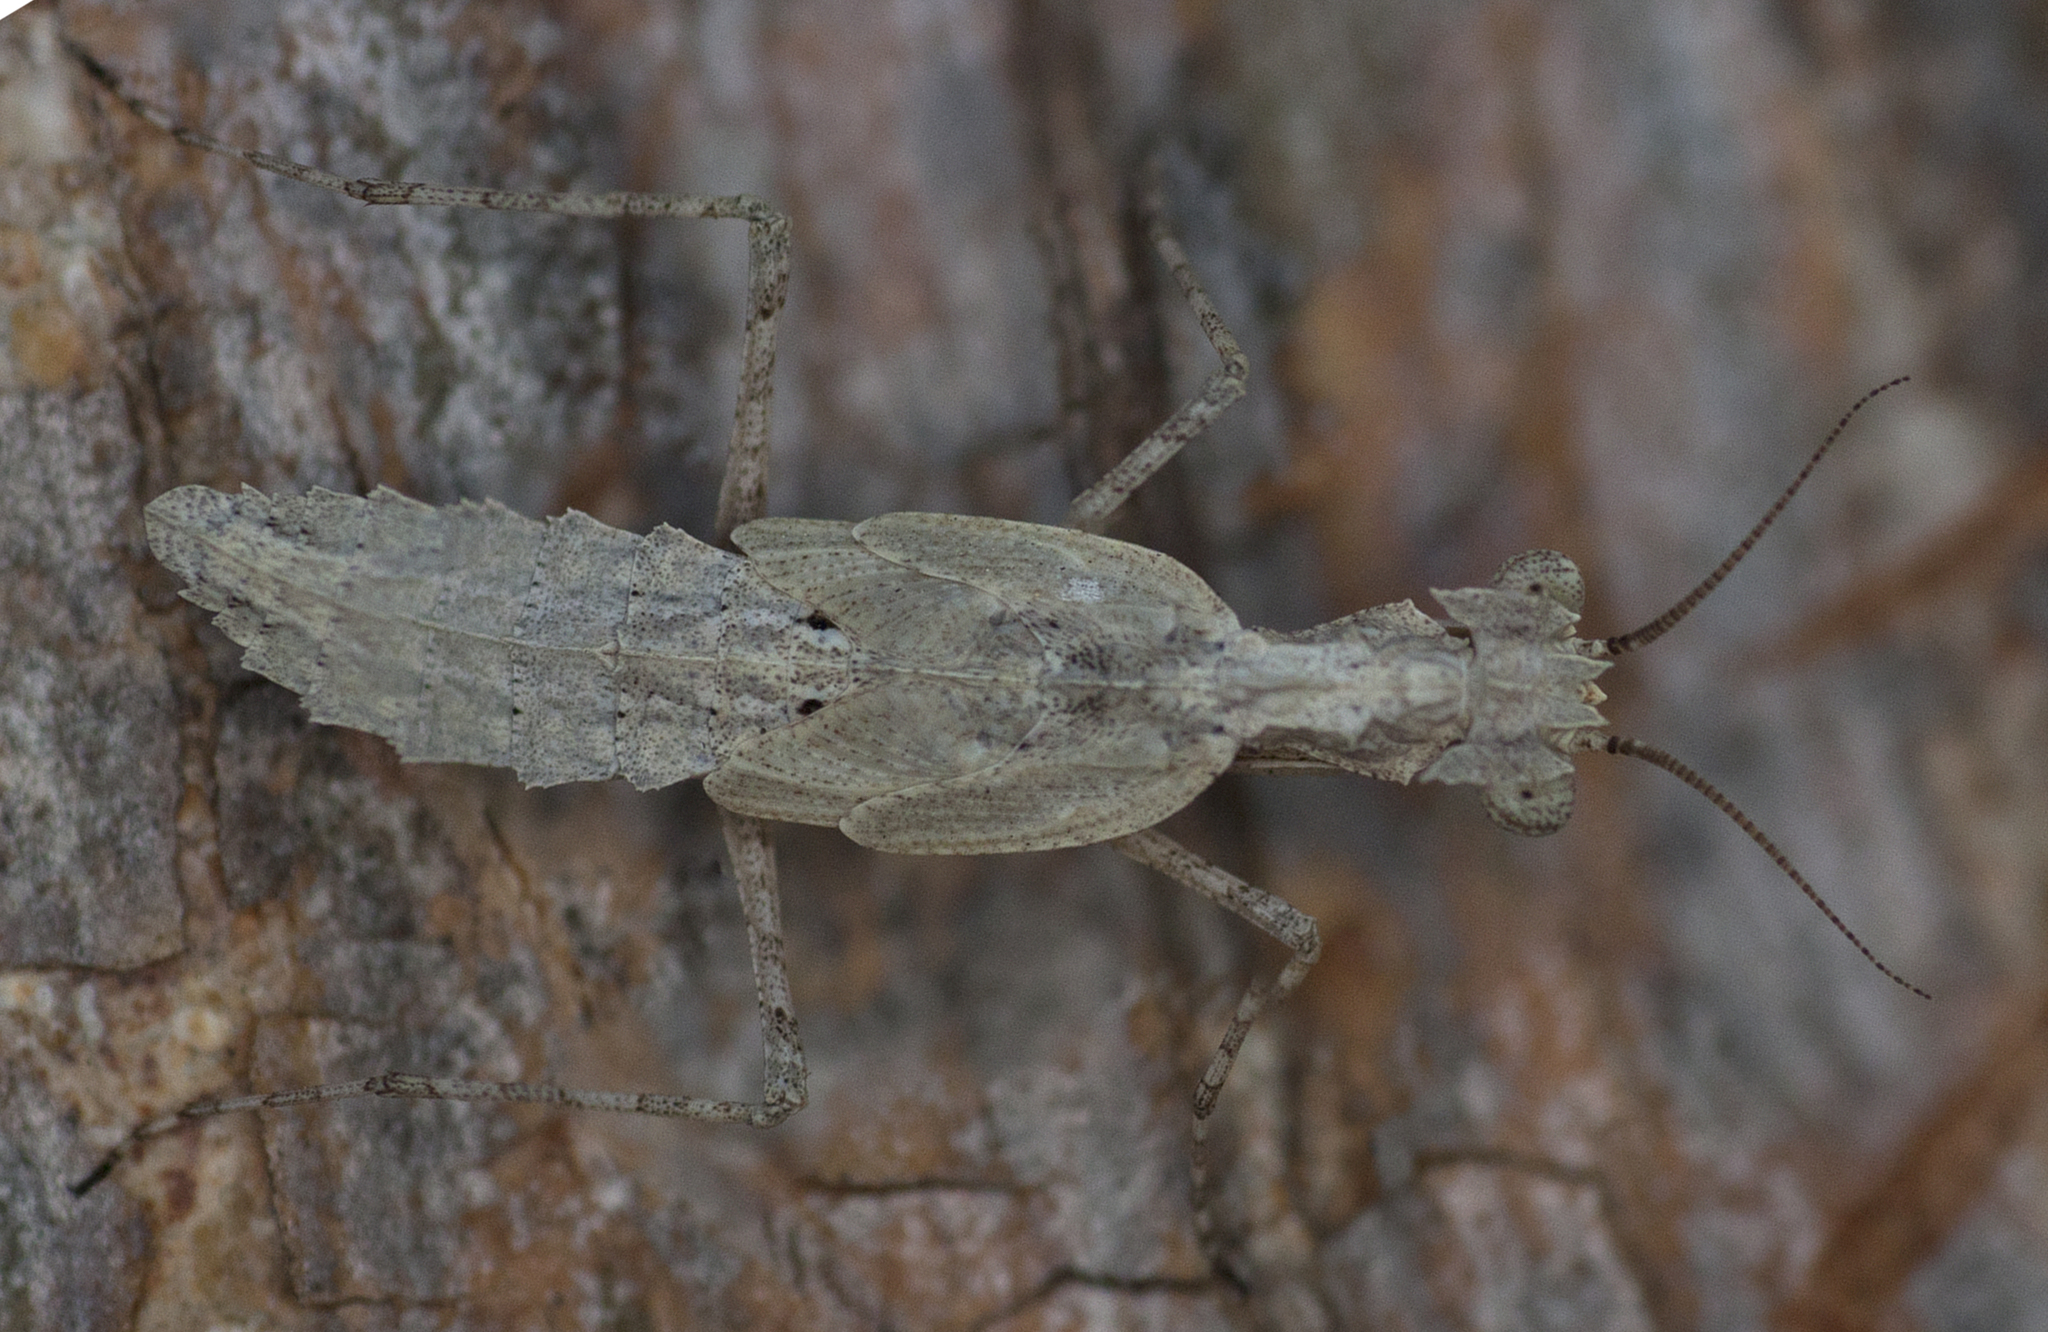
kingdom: Animalia
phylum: Arthropoda
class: Insecta
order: Mantodea
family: Nanomantidae
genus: Metoxypilus
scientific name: Metoxypilus lobifrons
